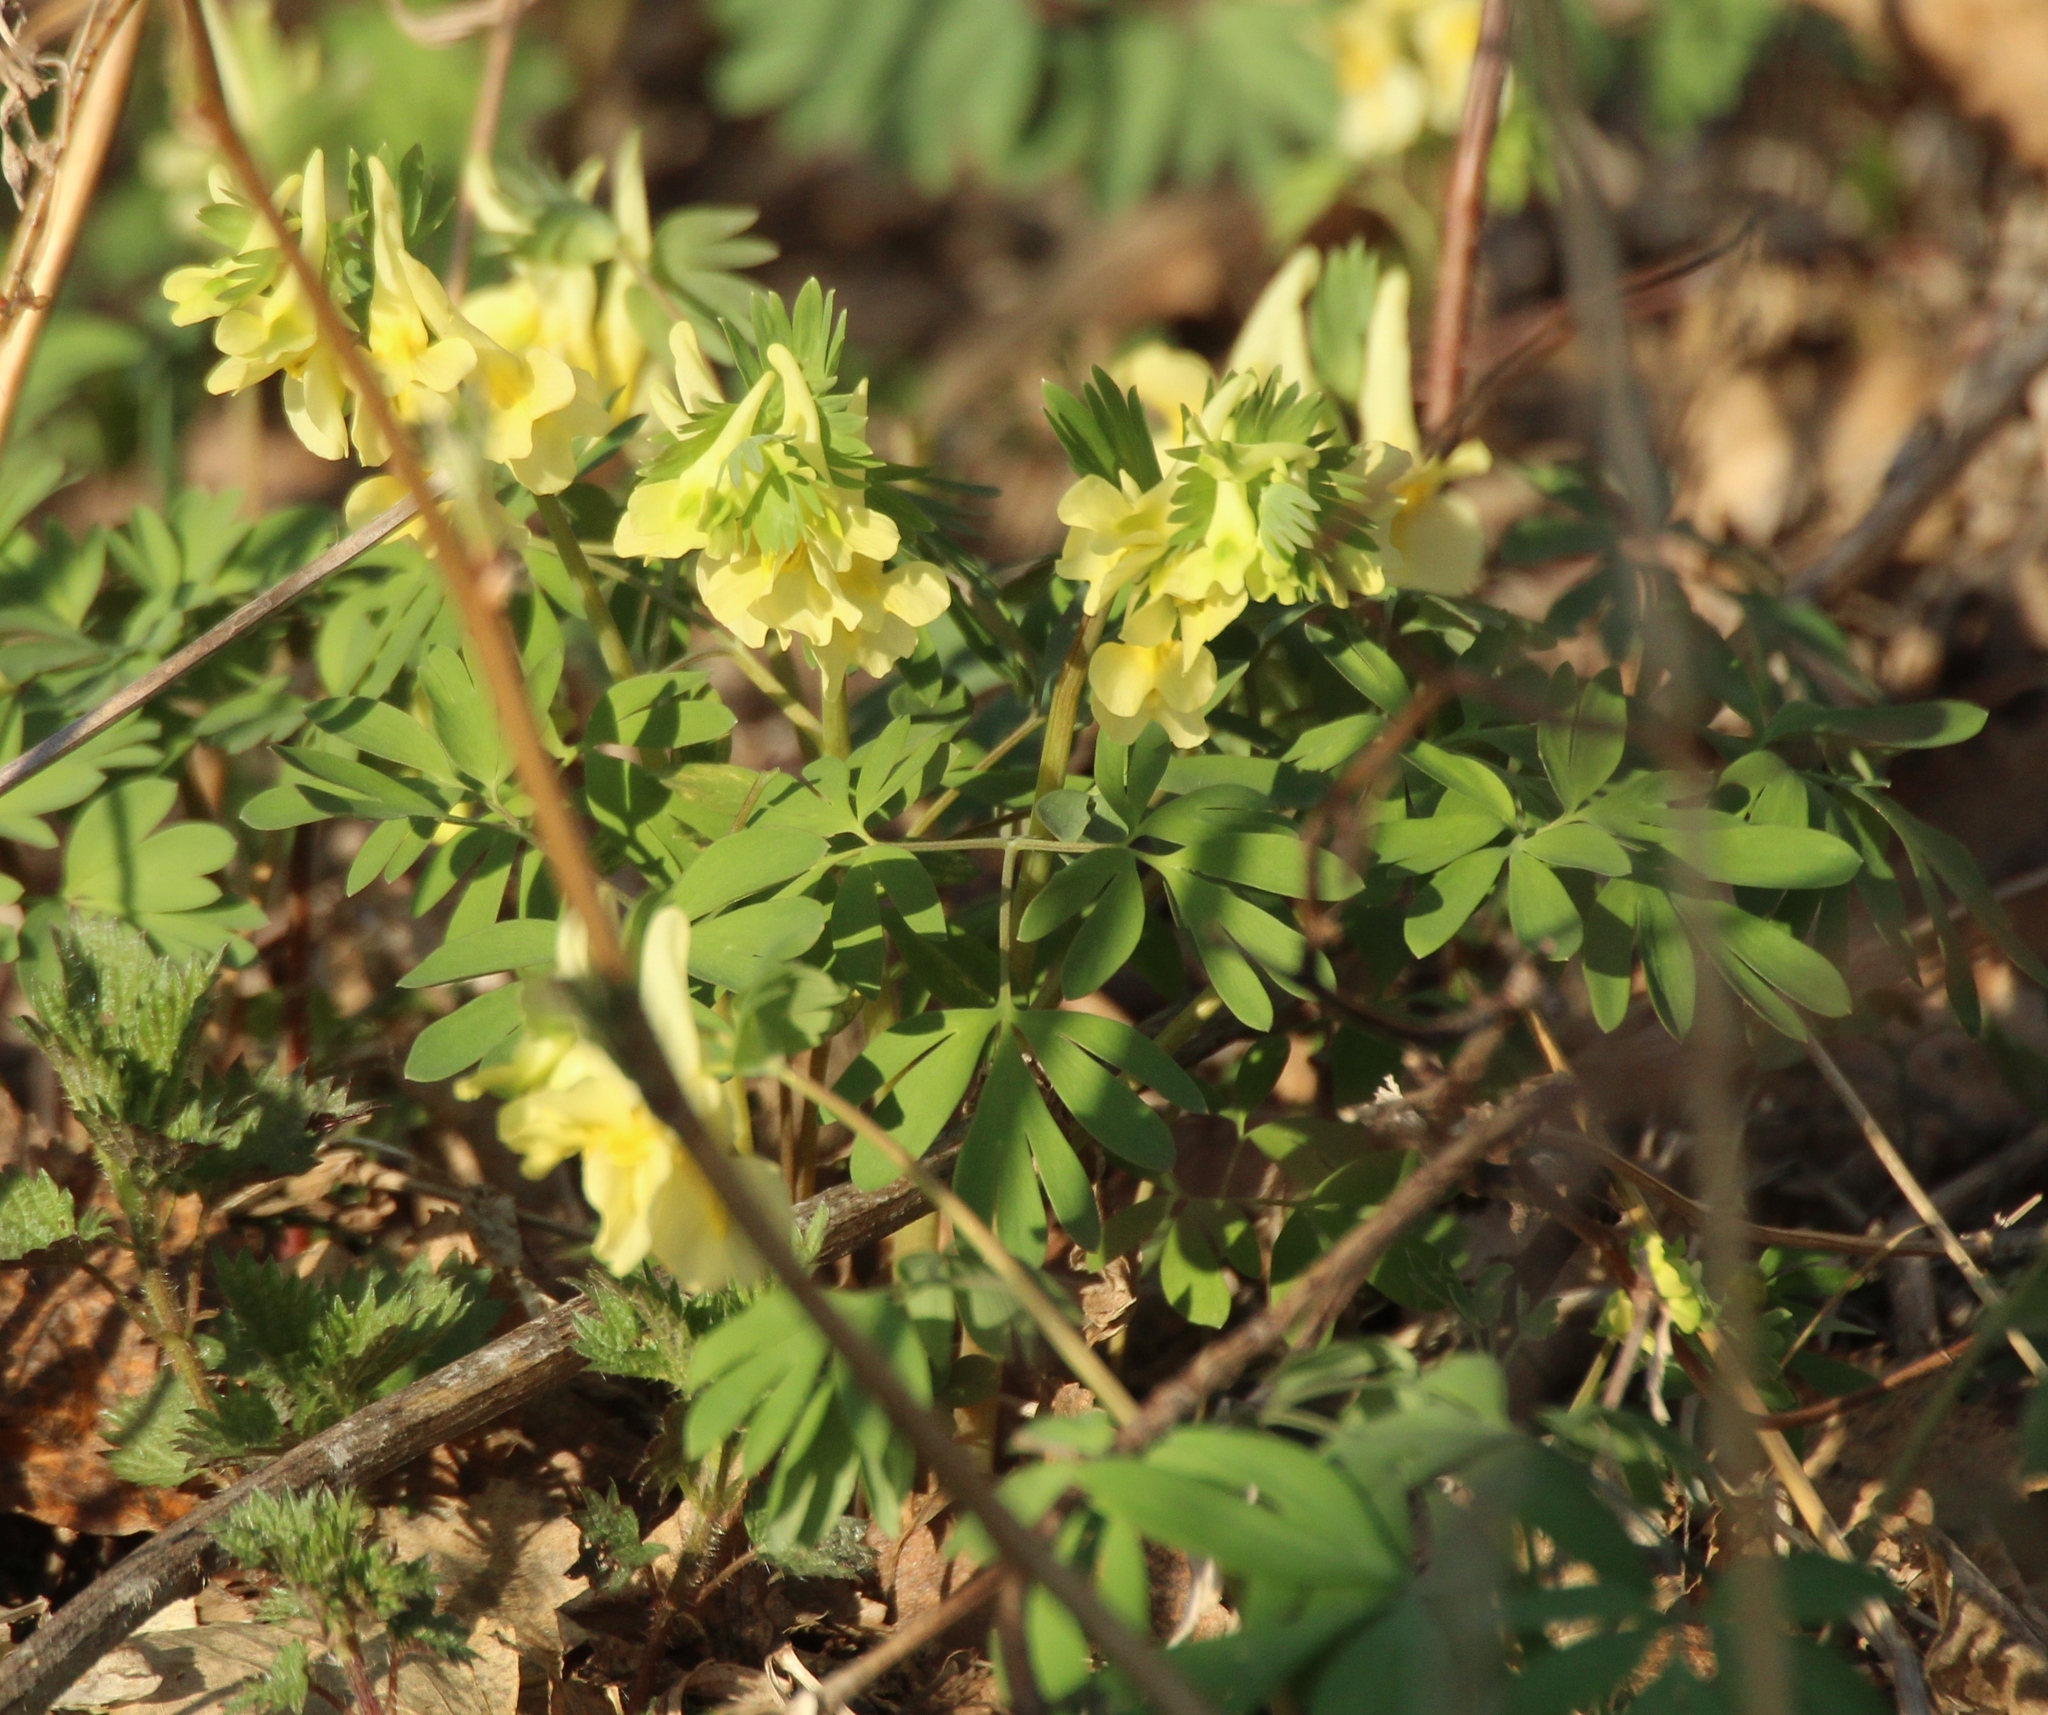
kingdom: Plantae
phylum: Tracheophyta
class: Magnoliopsida
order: Ranunculales
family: Papaveraceae
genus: Corydalis
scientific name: Corydalis bracteata
